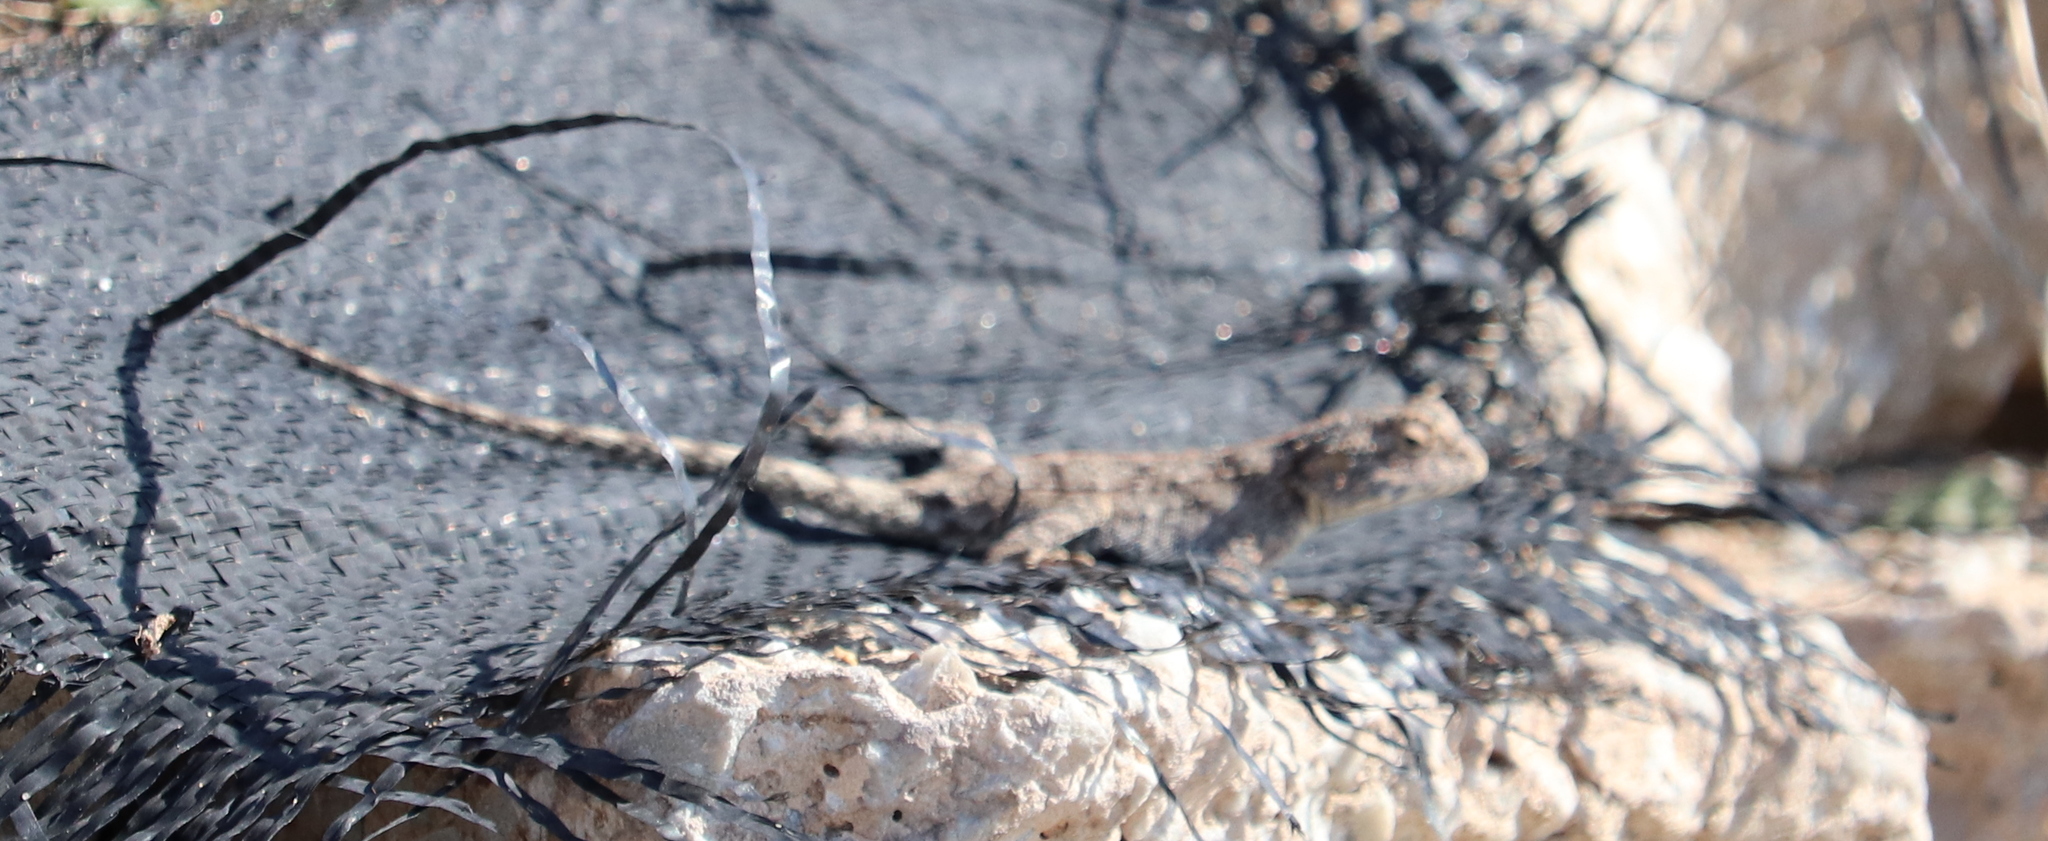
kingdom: Animalia
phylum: Chordata
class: Squamata
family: Agamidae
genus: Agama
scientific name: Agama atra
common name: Southern african rock agama
